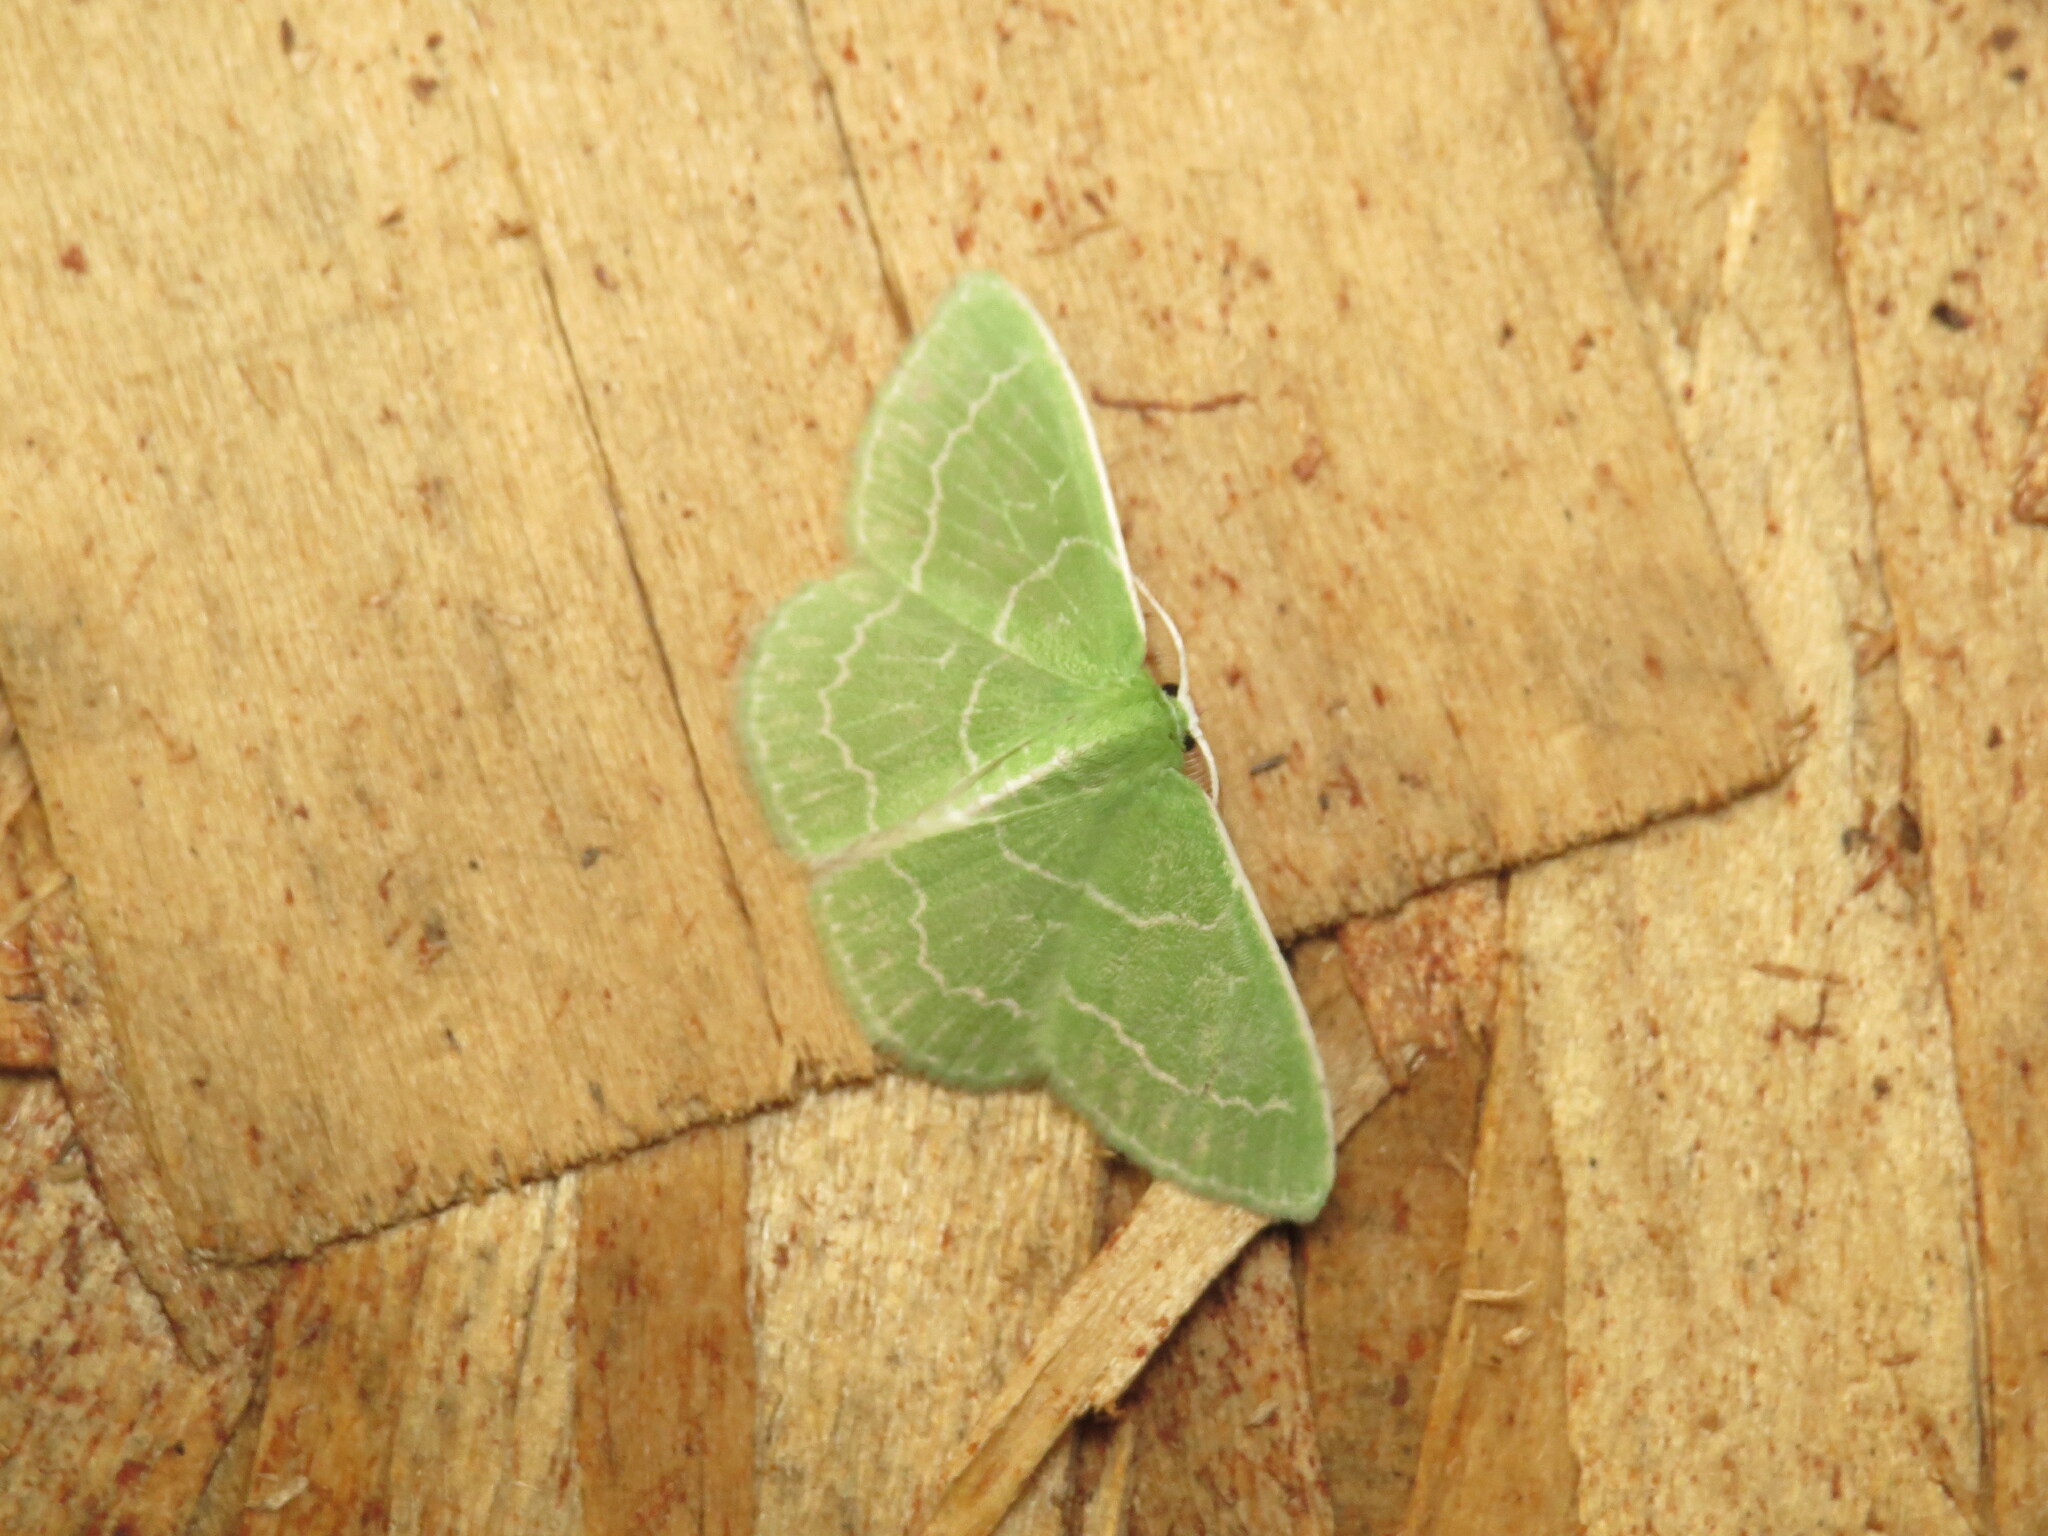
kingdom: Animalia
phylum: Arthropoda
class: Insecta
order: Lepidoptera
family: Geometridae
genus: Synchlora
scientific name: Synchlora aerata
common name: Wavy-lined emerald
